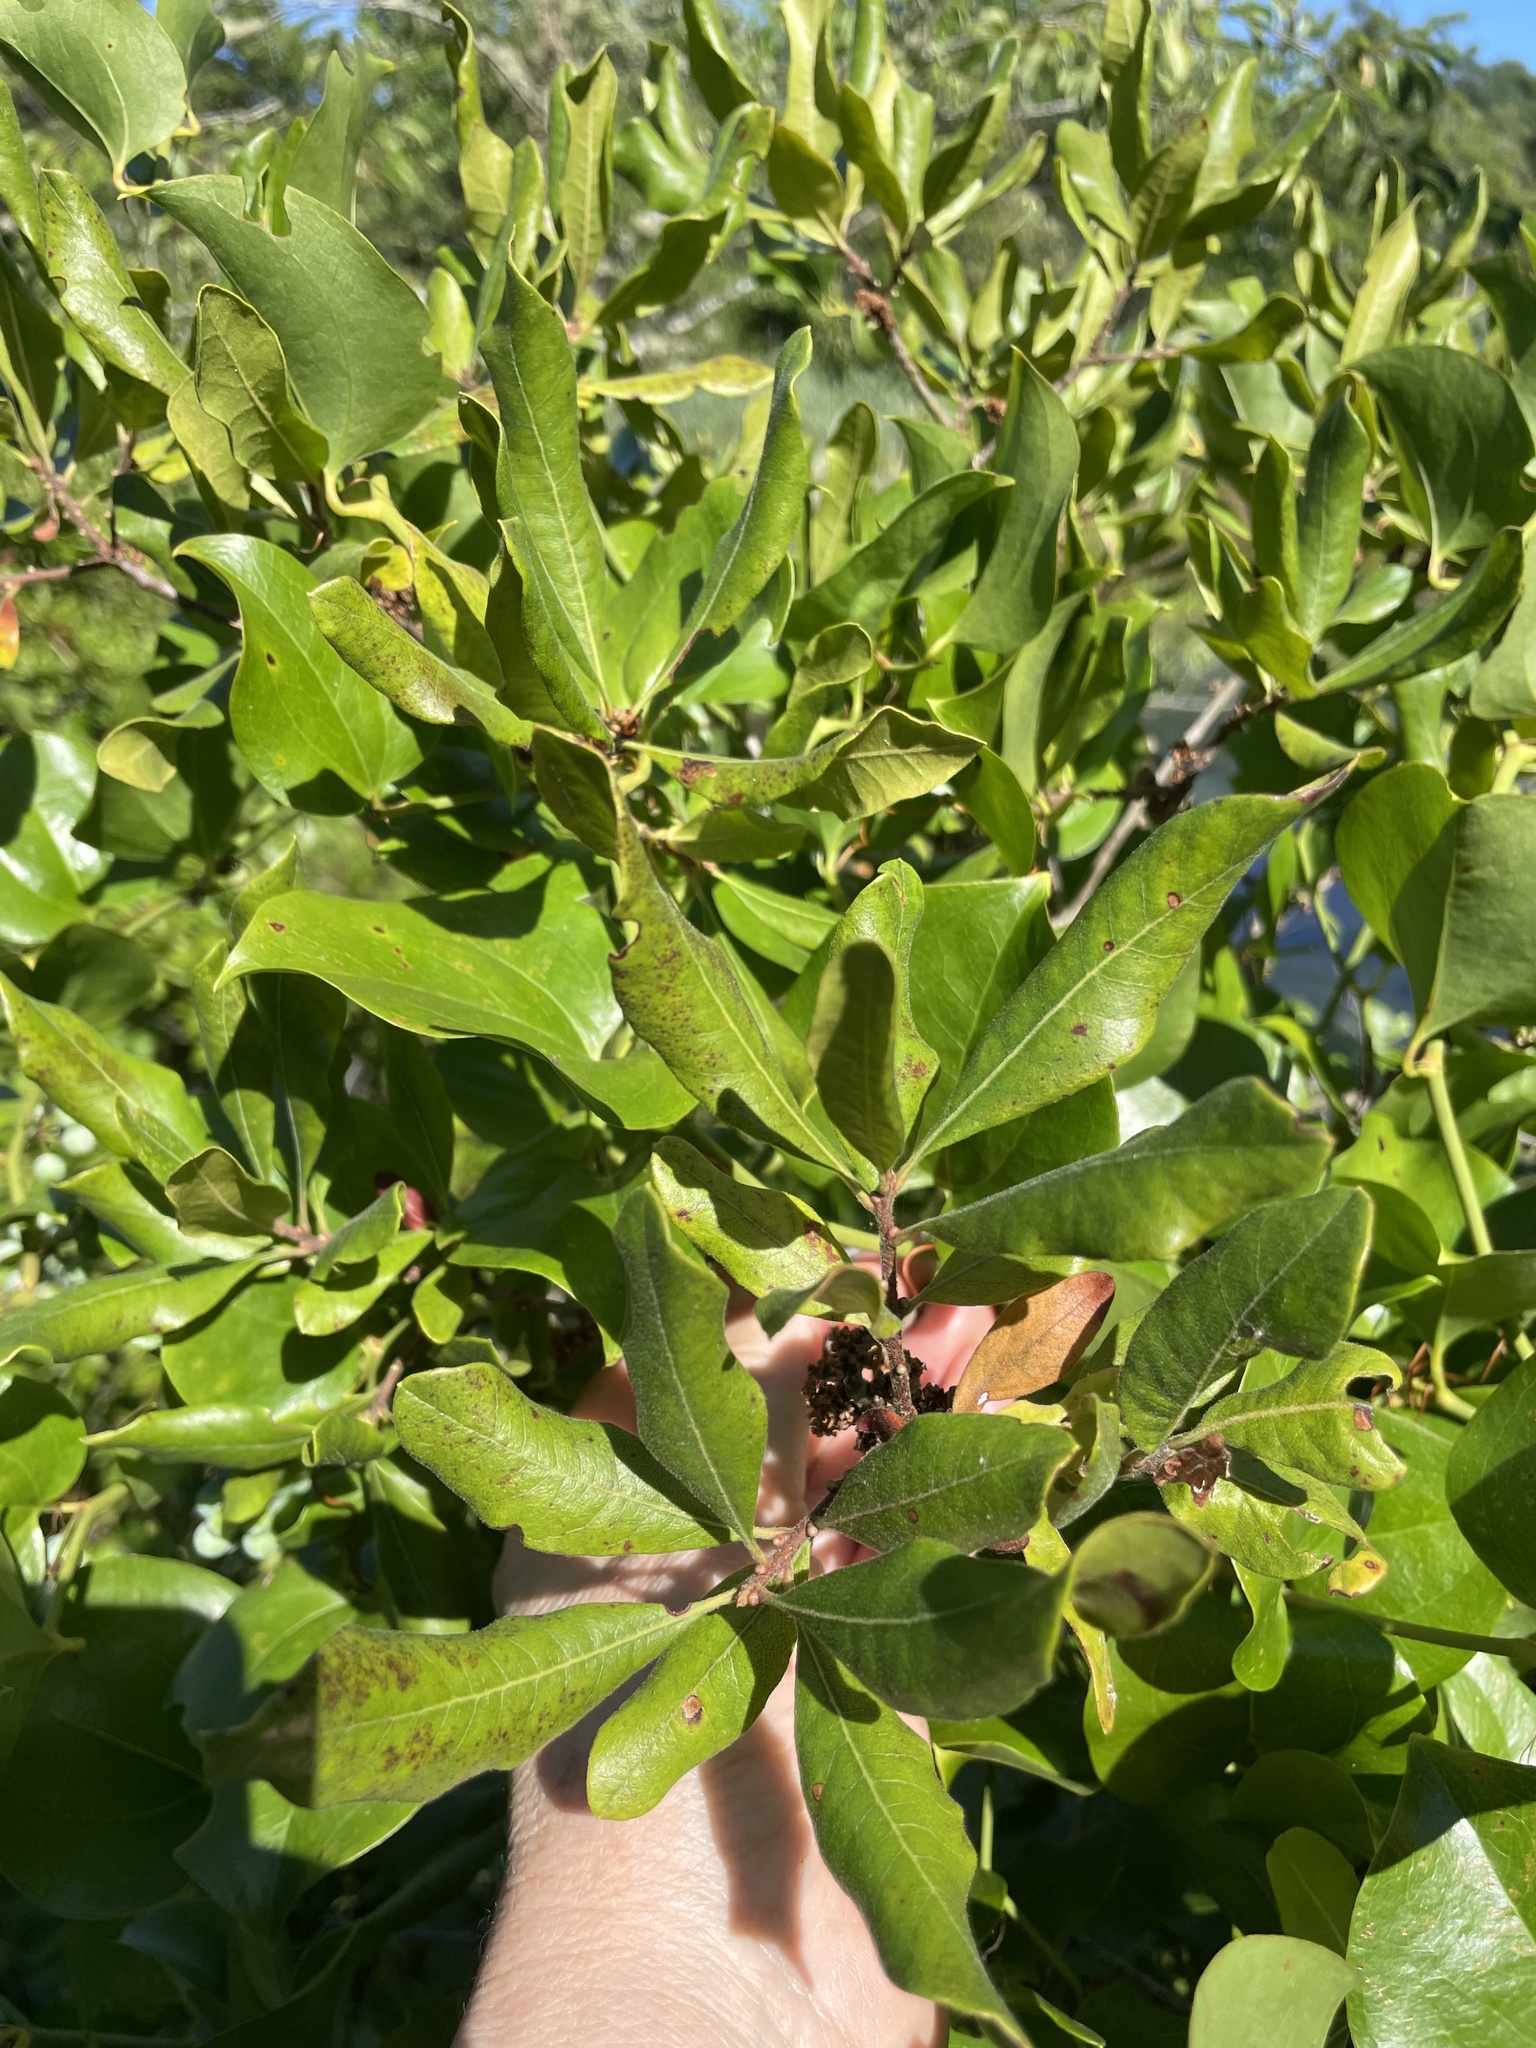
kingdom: Plantae
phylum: Tracheophyta
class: Magnoliopsida
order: Fagales
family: Myricaceae
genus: Morella
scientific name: Morella pensylvanica
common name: Northern bayberry
